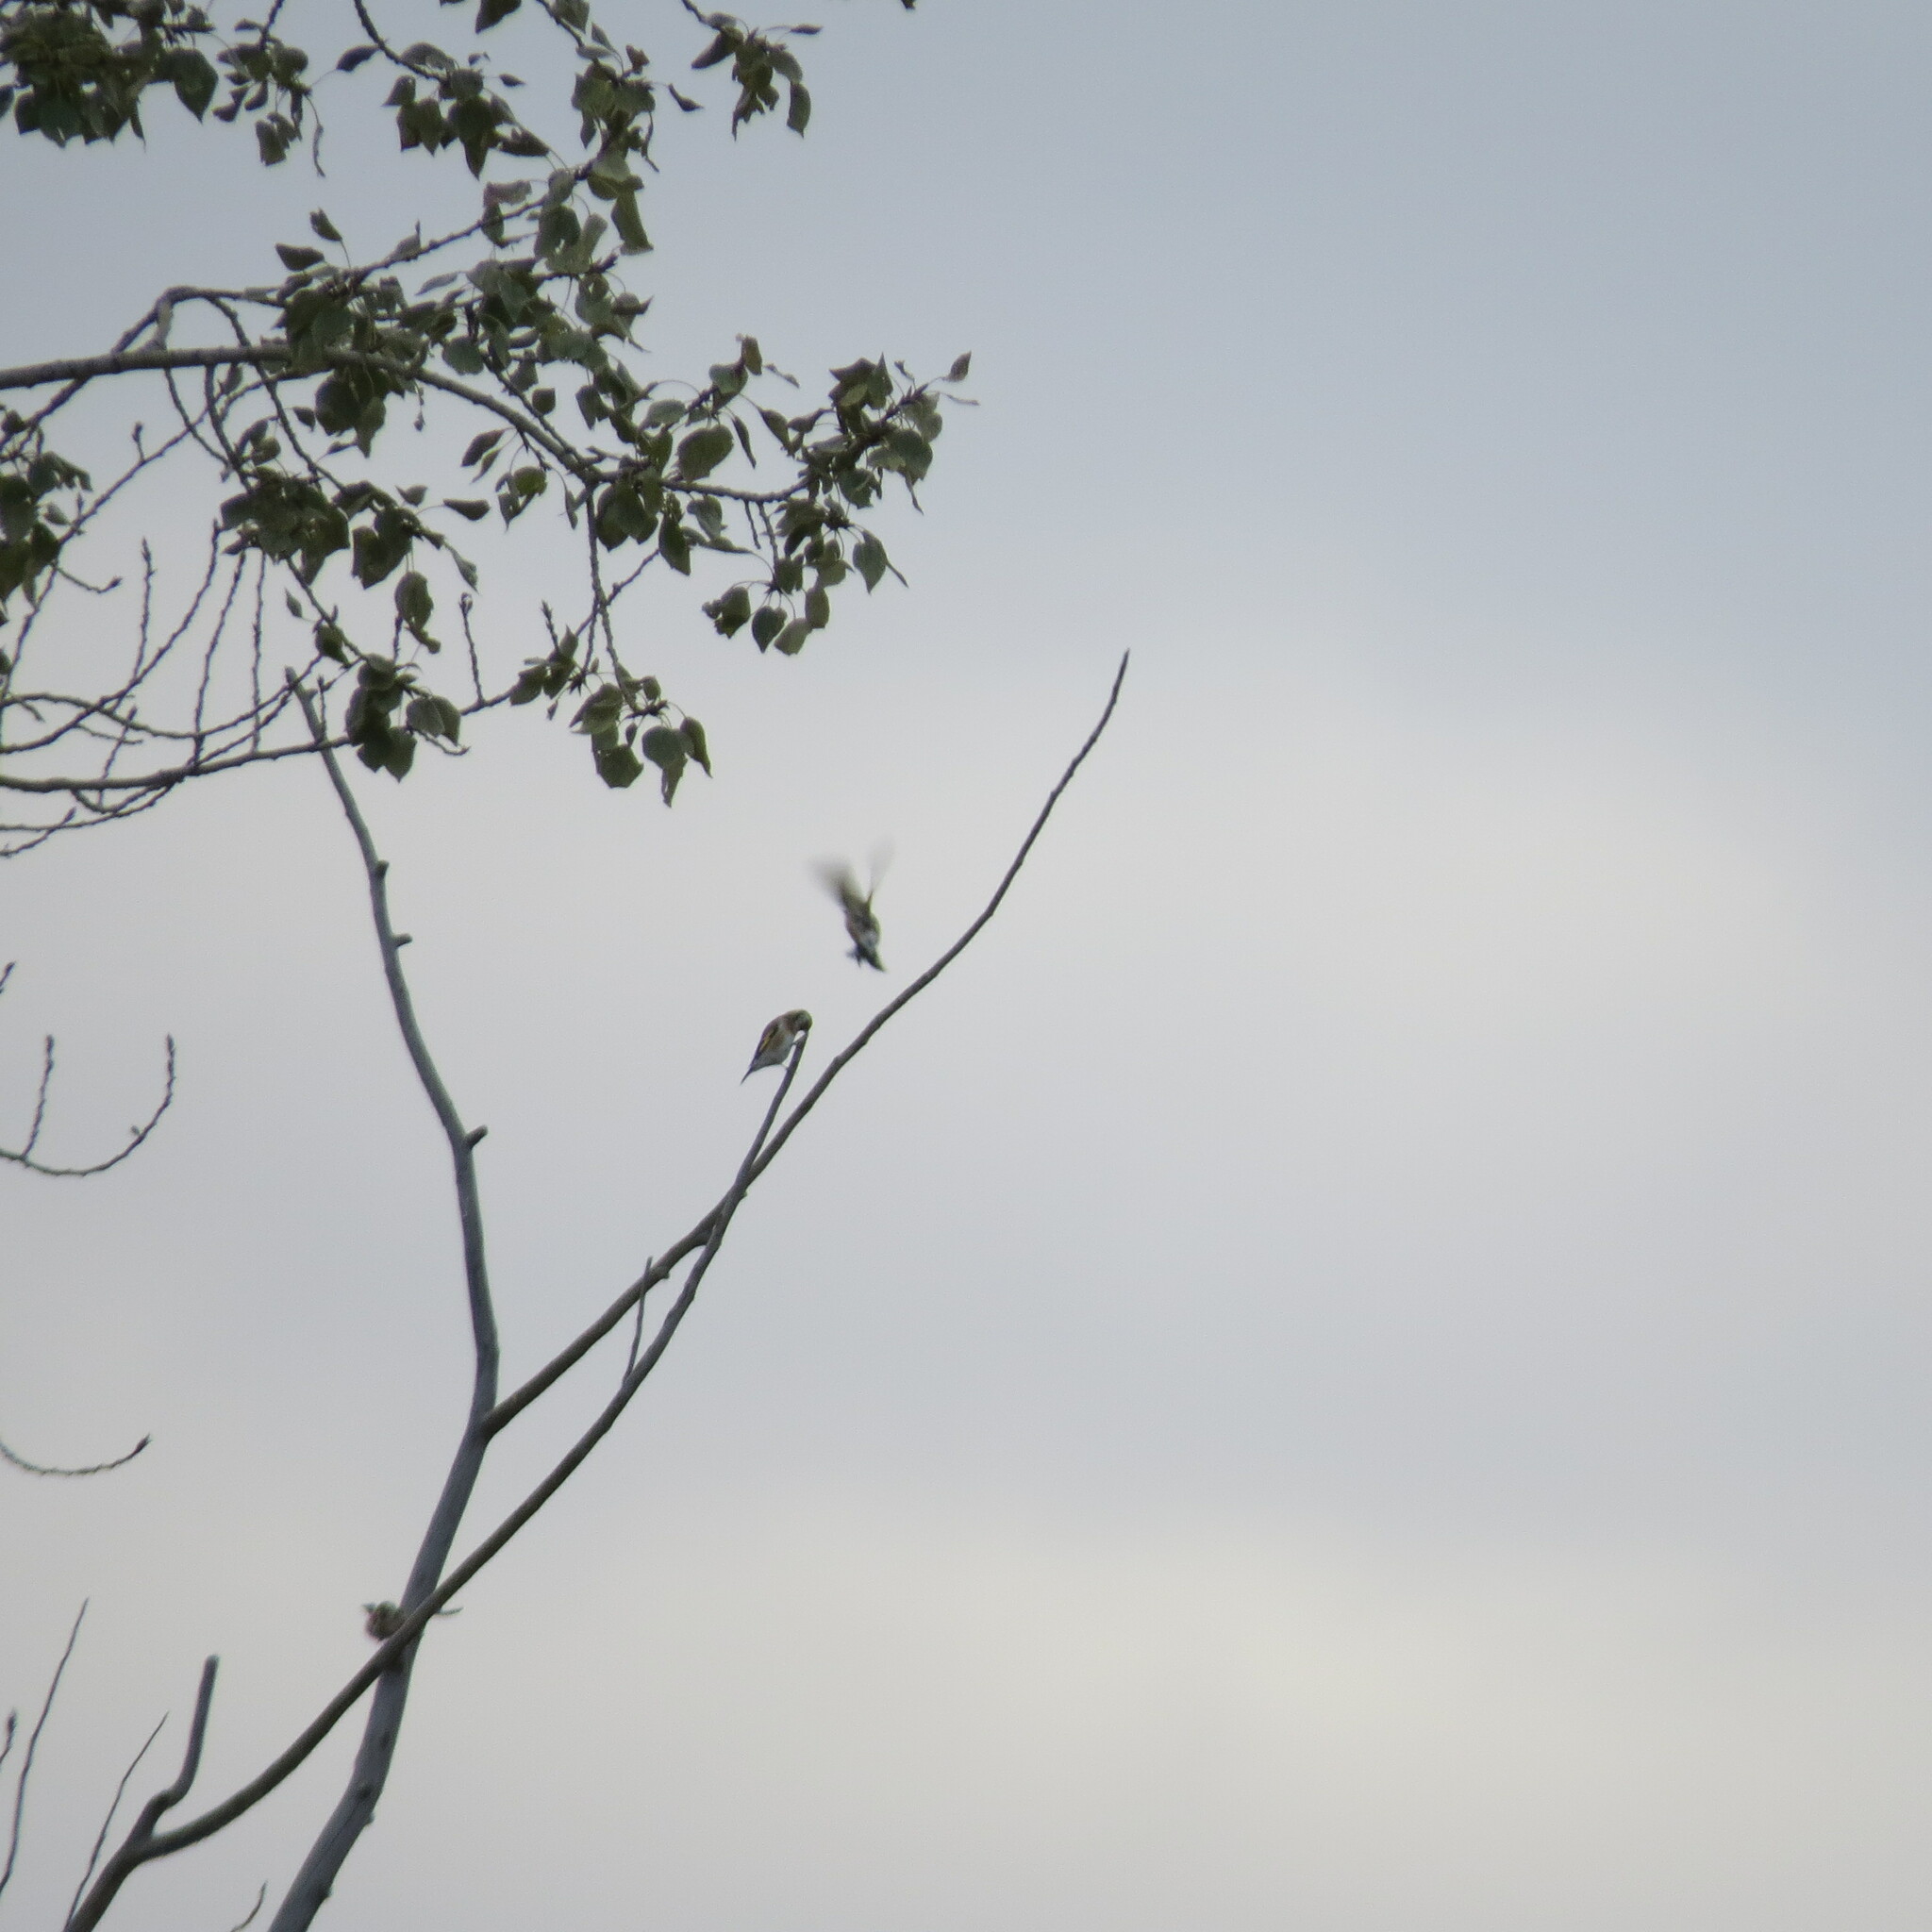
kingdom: Animalia
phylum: Chordata
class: Aves
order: Passeriformes
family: Fringillidae
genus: Carduelis
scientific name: Carduelis carduelis
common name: European goldfinch
